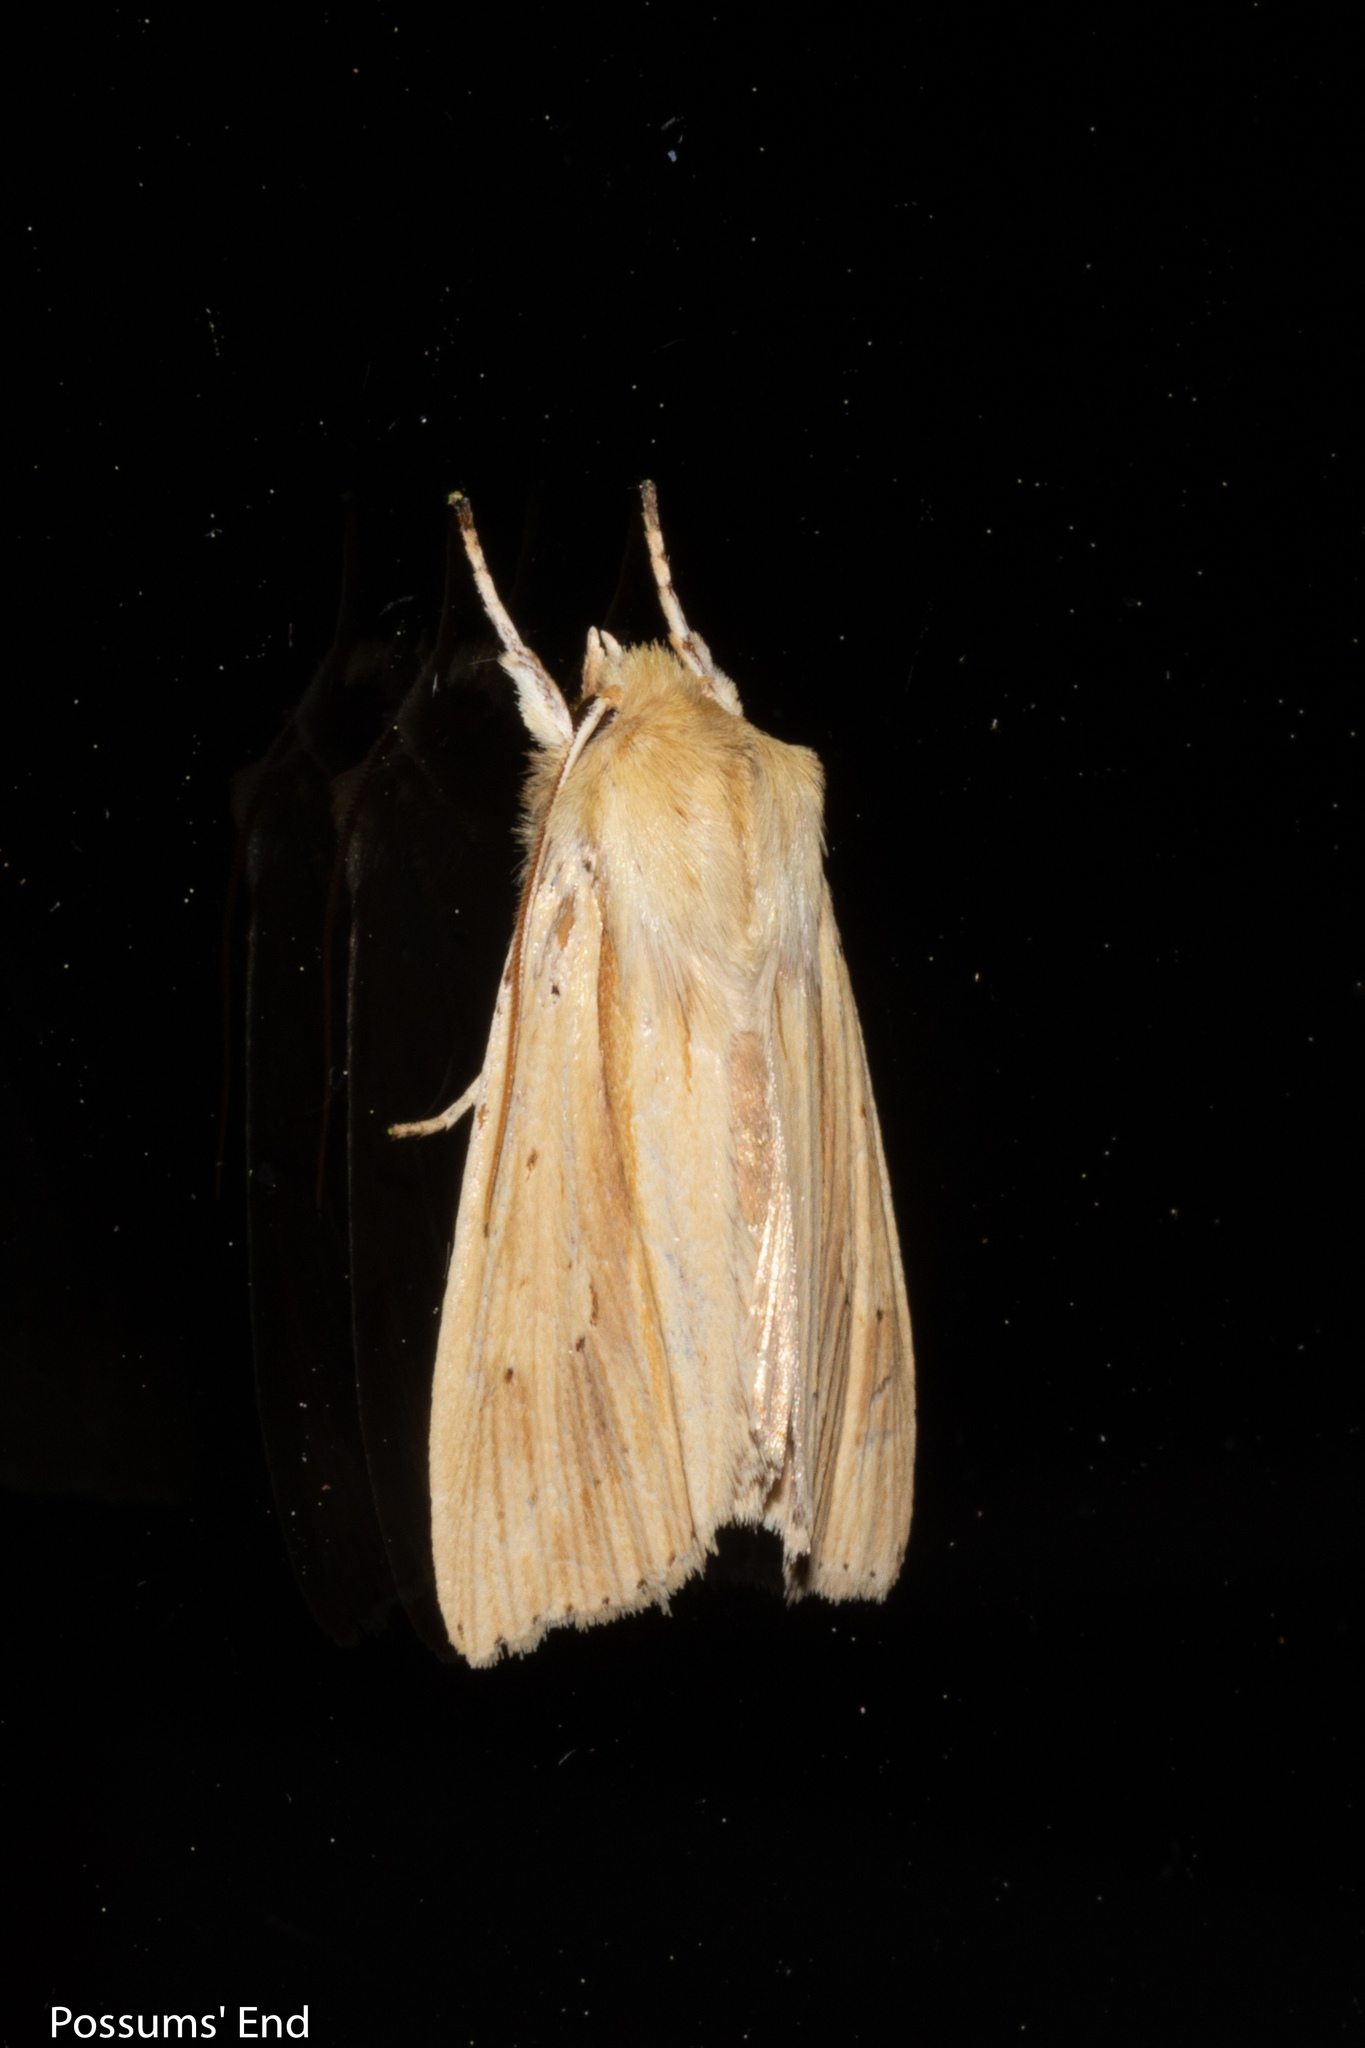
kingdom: Animalia
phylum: Arthropoda
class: Insecta
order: Lepidoptera
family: Noctuidae
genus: Ichneutica
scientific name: Ichneutica semivittata
